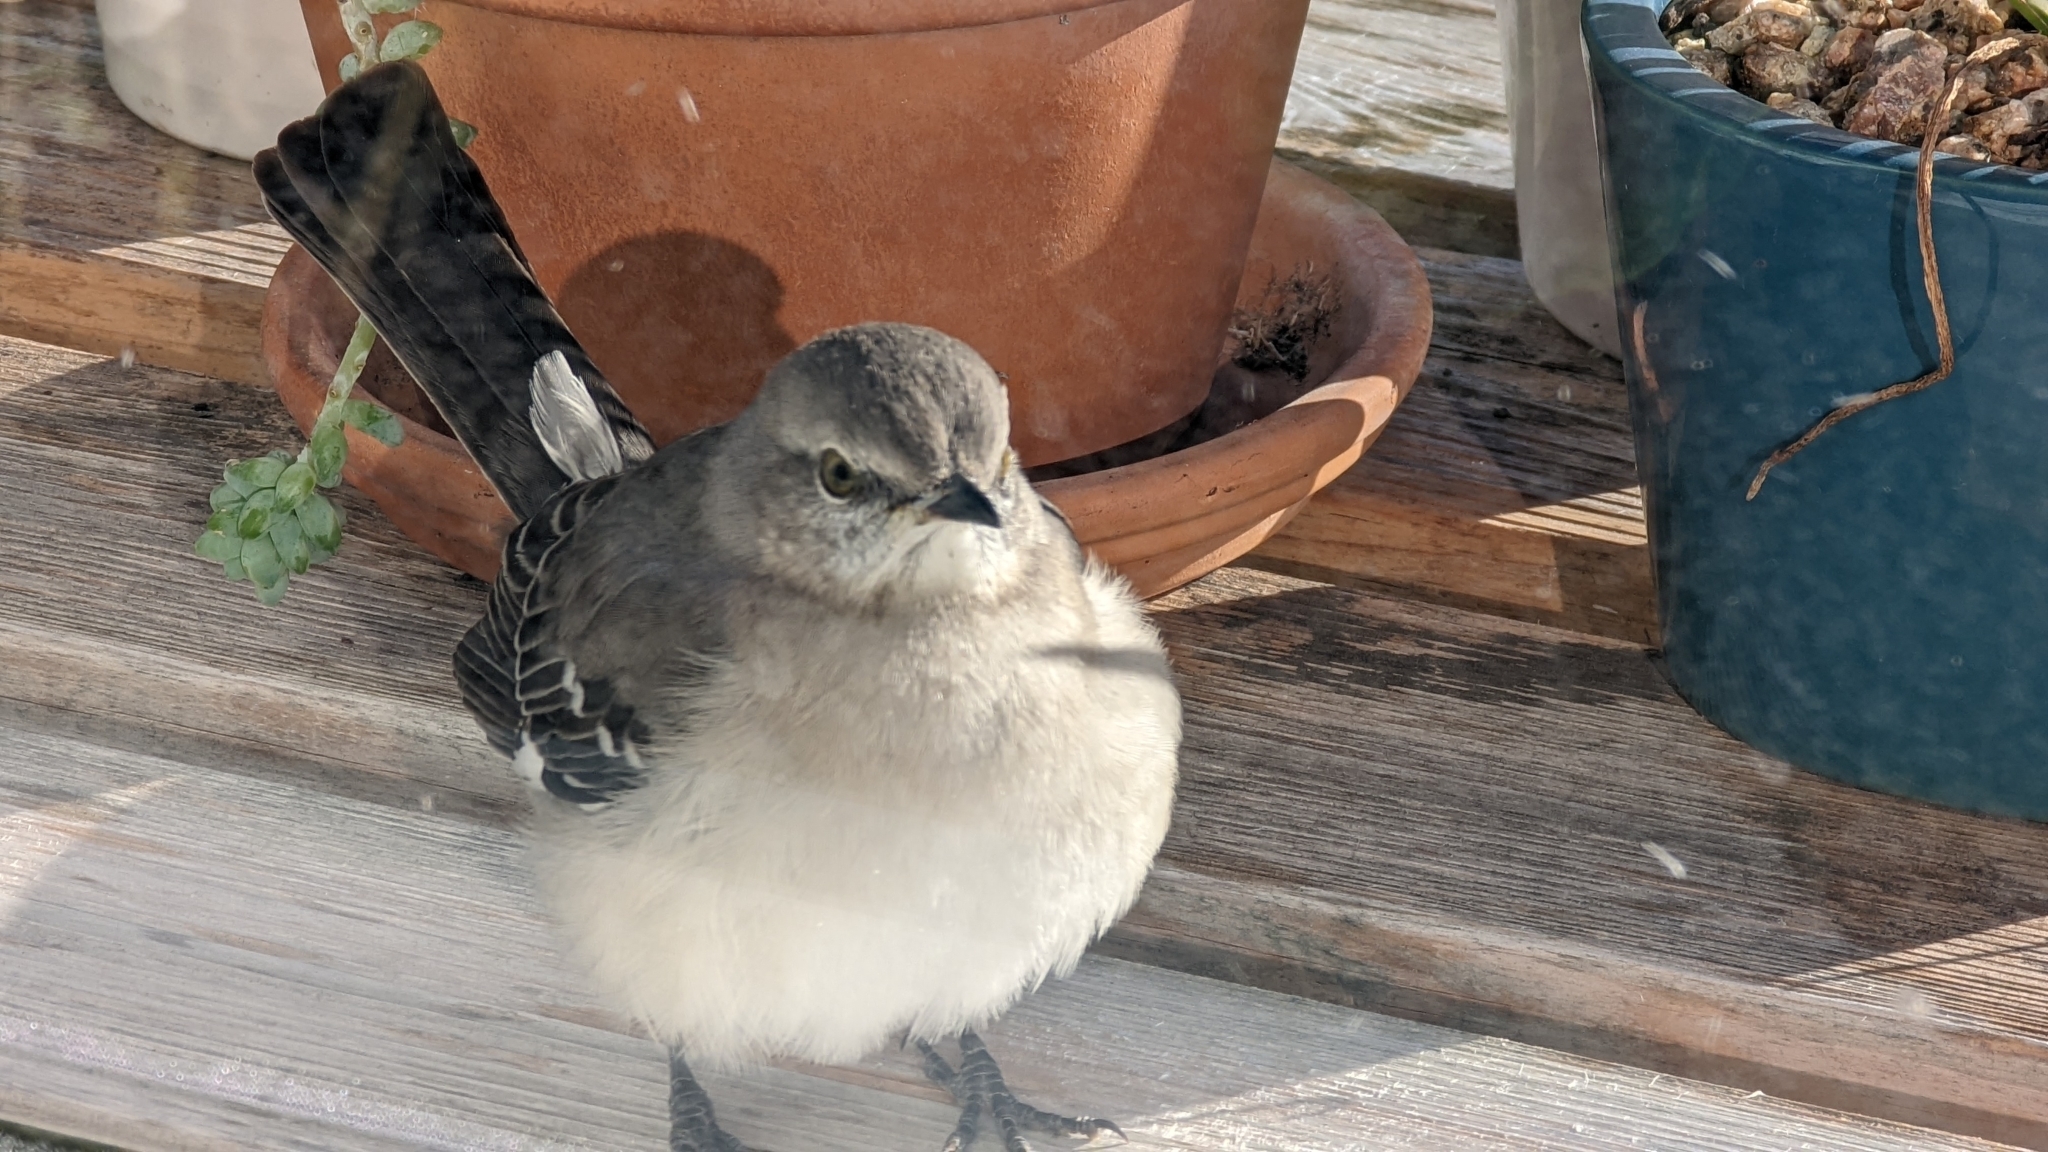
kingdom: Animalia
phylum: Chordata
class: Aves
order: Passeriformes
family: Mimidae
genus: Mimus
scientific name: Mimus polyglottos
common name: Northern mockingbird
